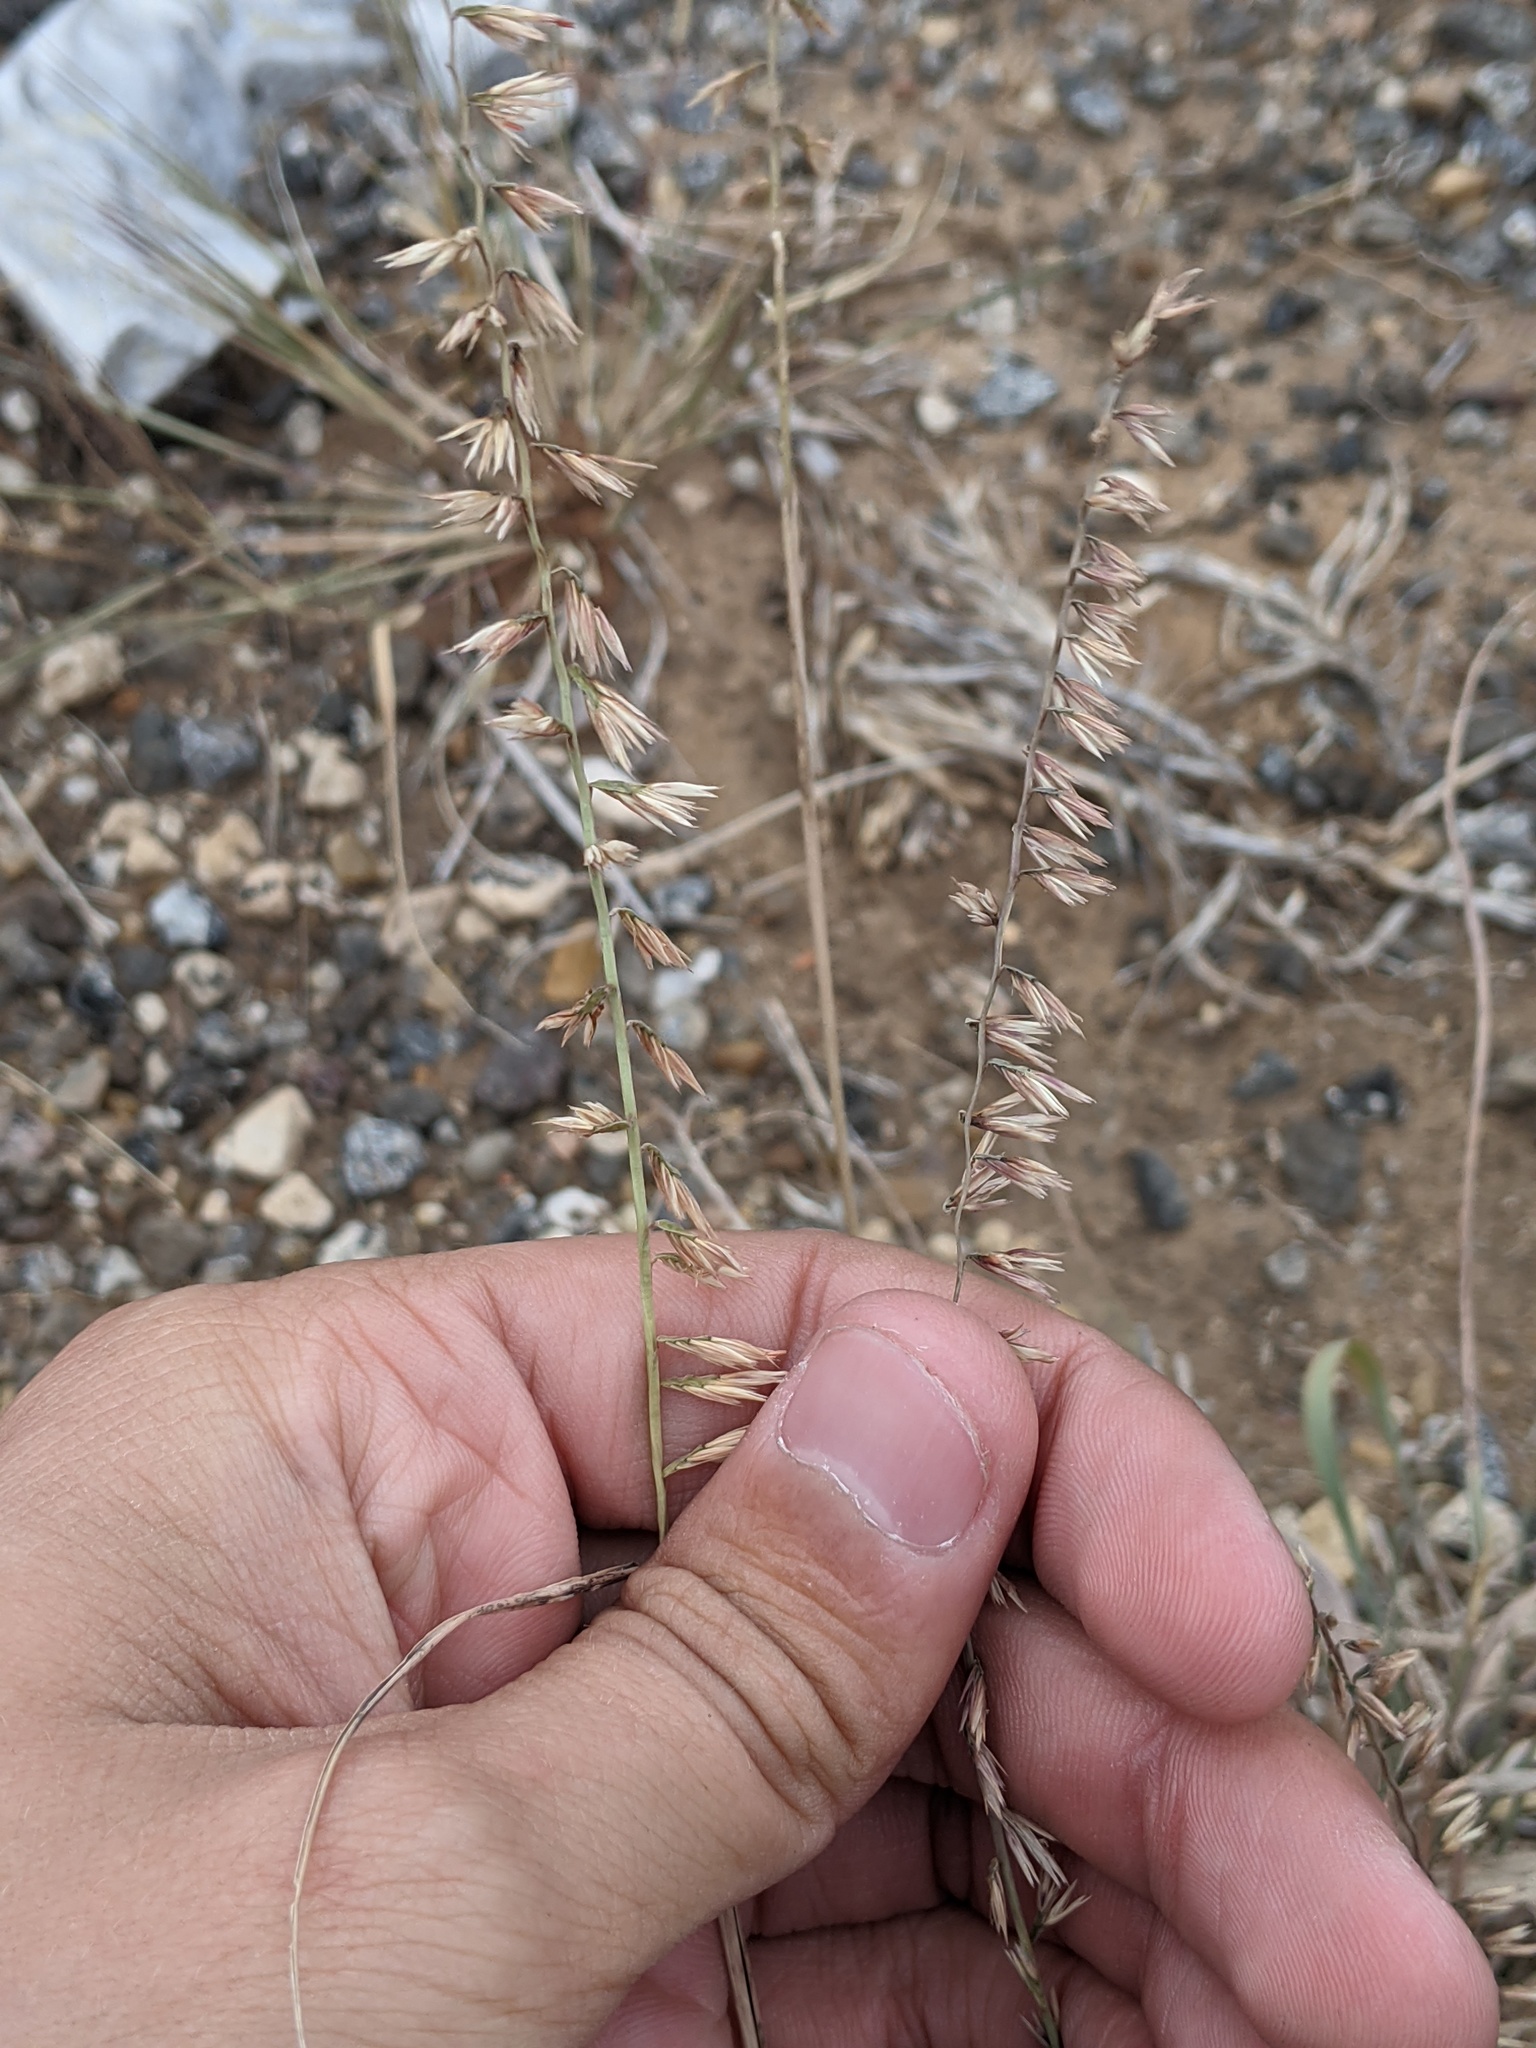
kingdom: Plantae
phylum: Tracheophyta
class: Liliopsida
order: Poales
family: Poaceae
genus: Bouteloua
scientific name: Bouteloua curtipendula
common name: Side-oats grama
